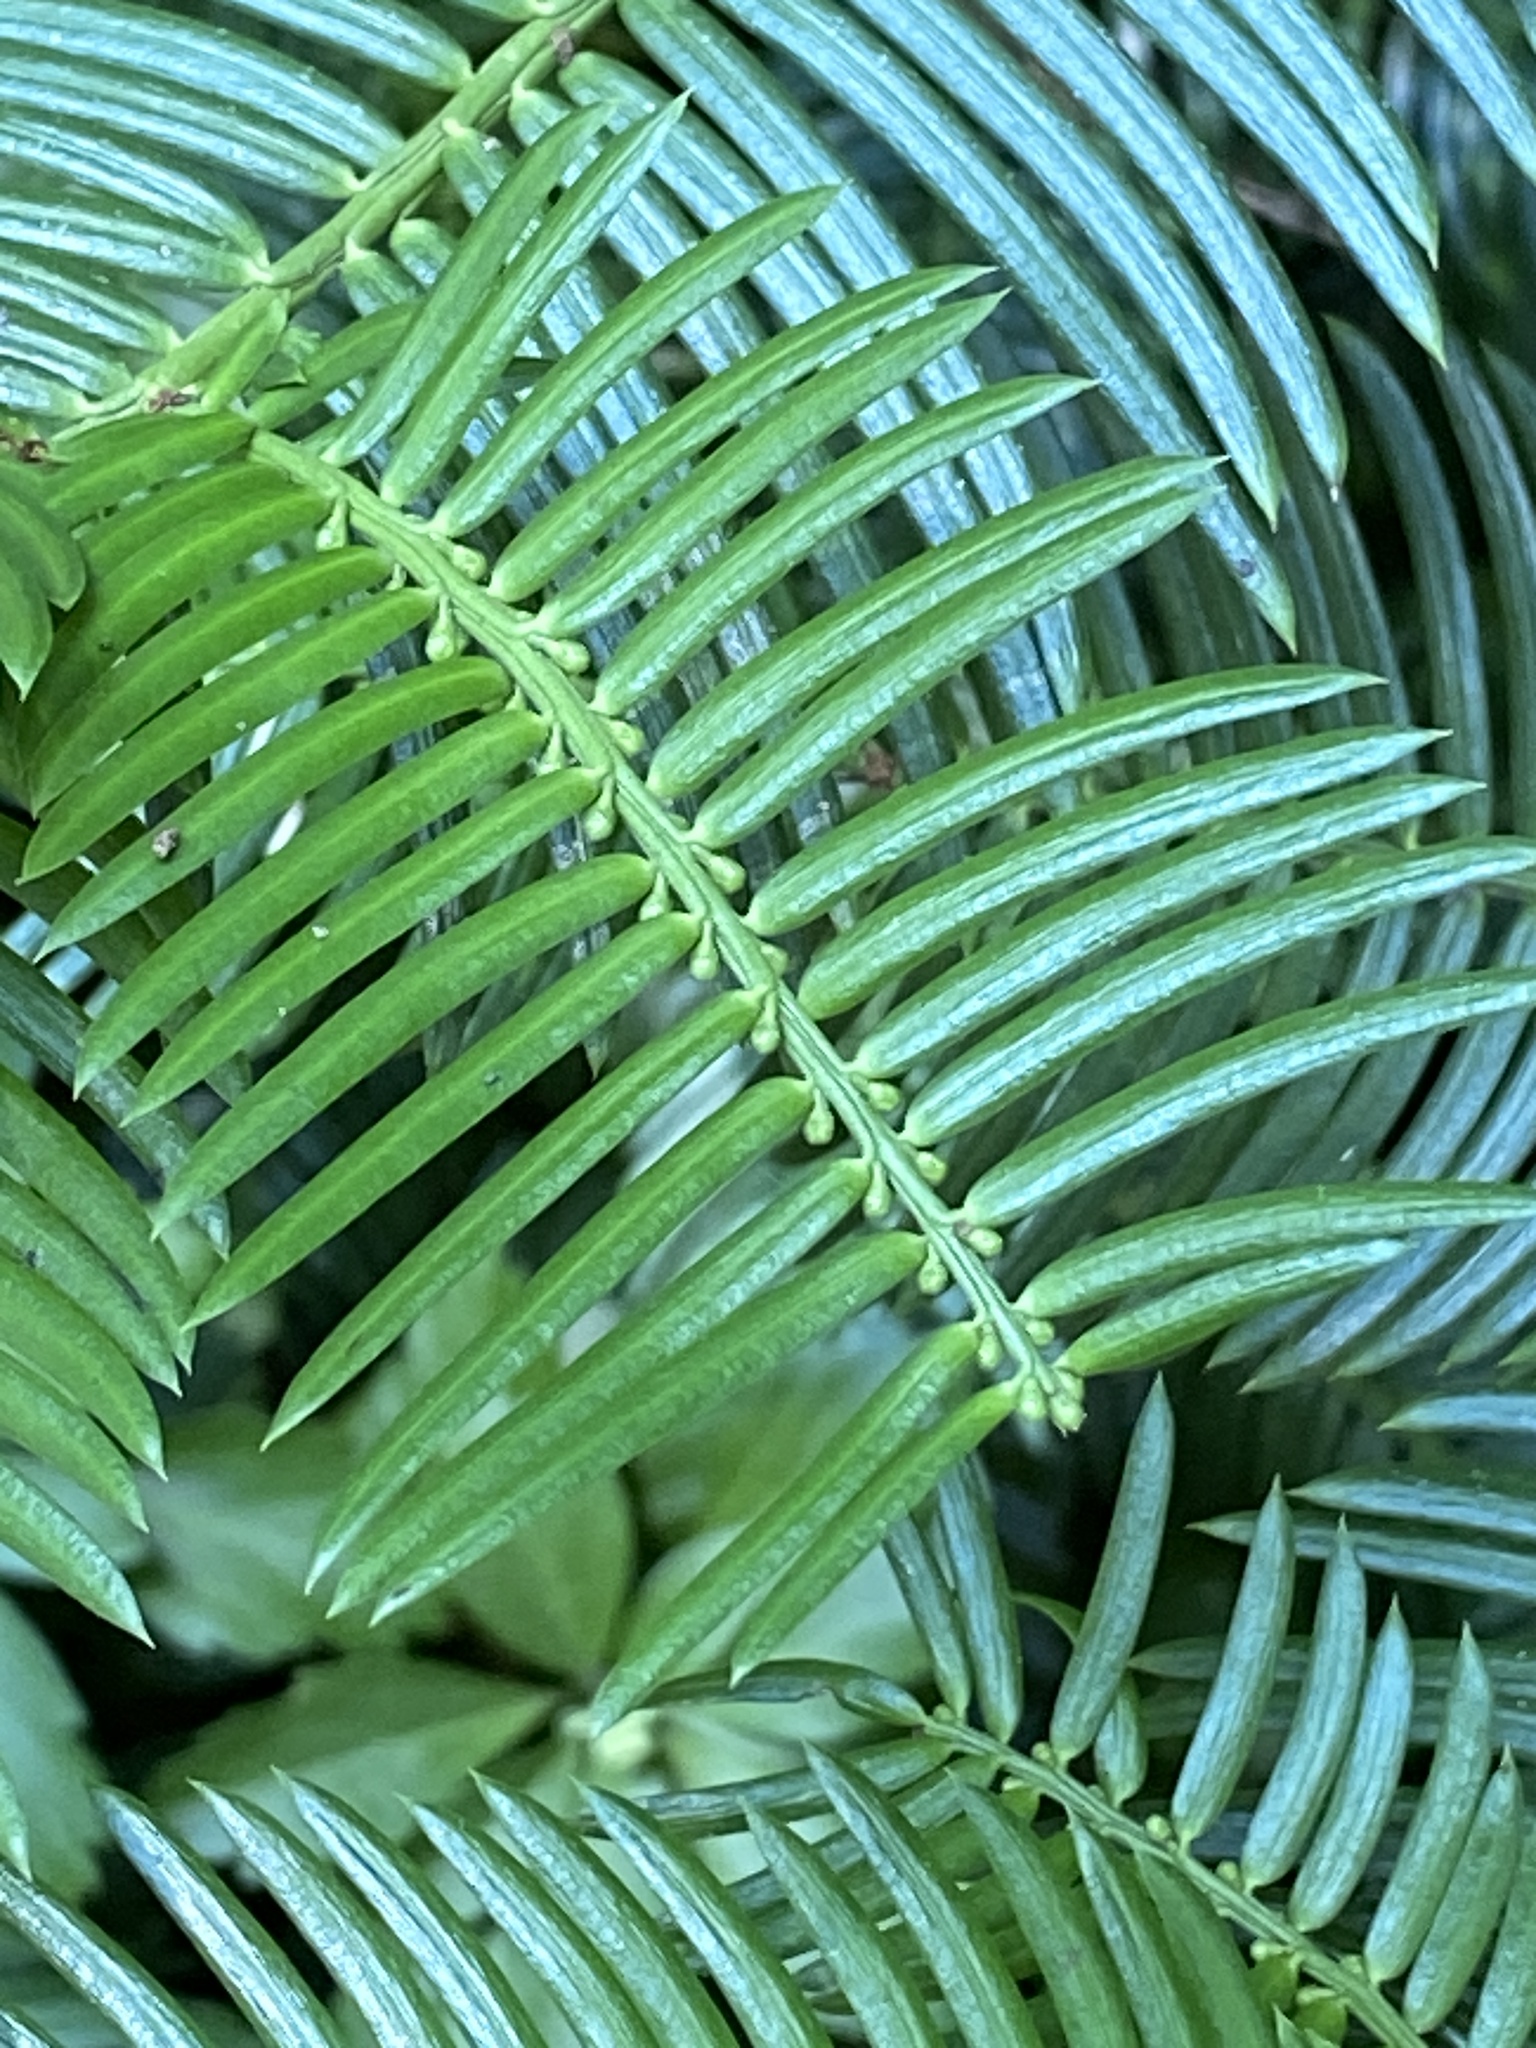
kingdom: Plantae
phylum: Tracheophyta
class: Pinopsida
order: Pinales
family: Cephalotaxaceae
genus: Cephalotaxus
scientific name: Cephalotaxus harringtonia
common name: Japanese plum-yew
